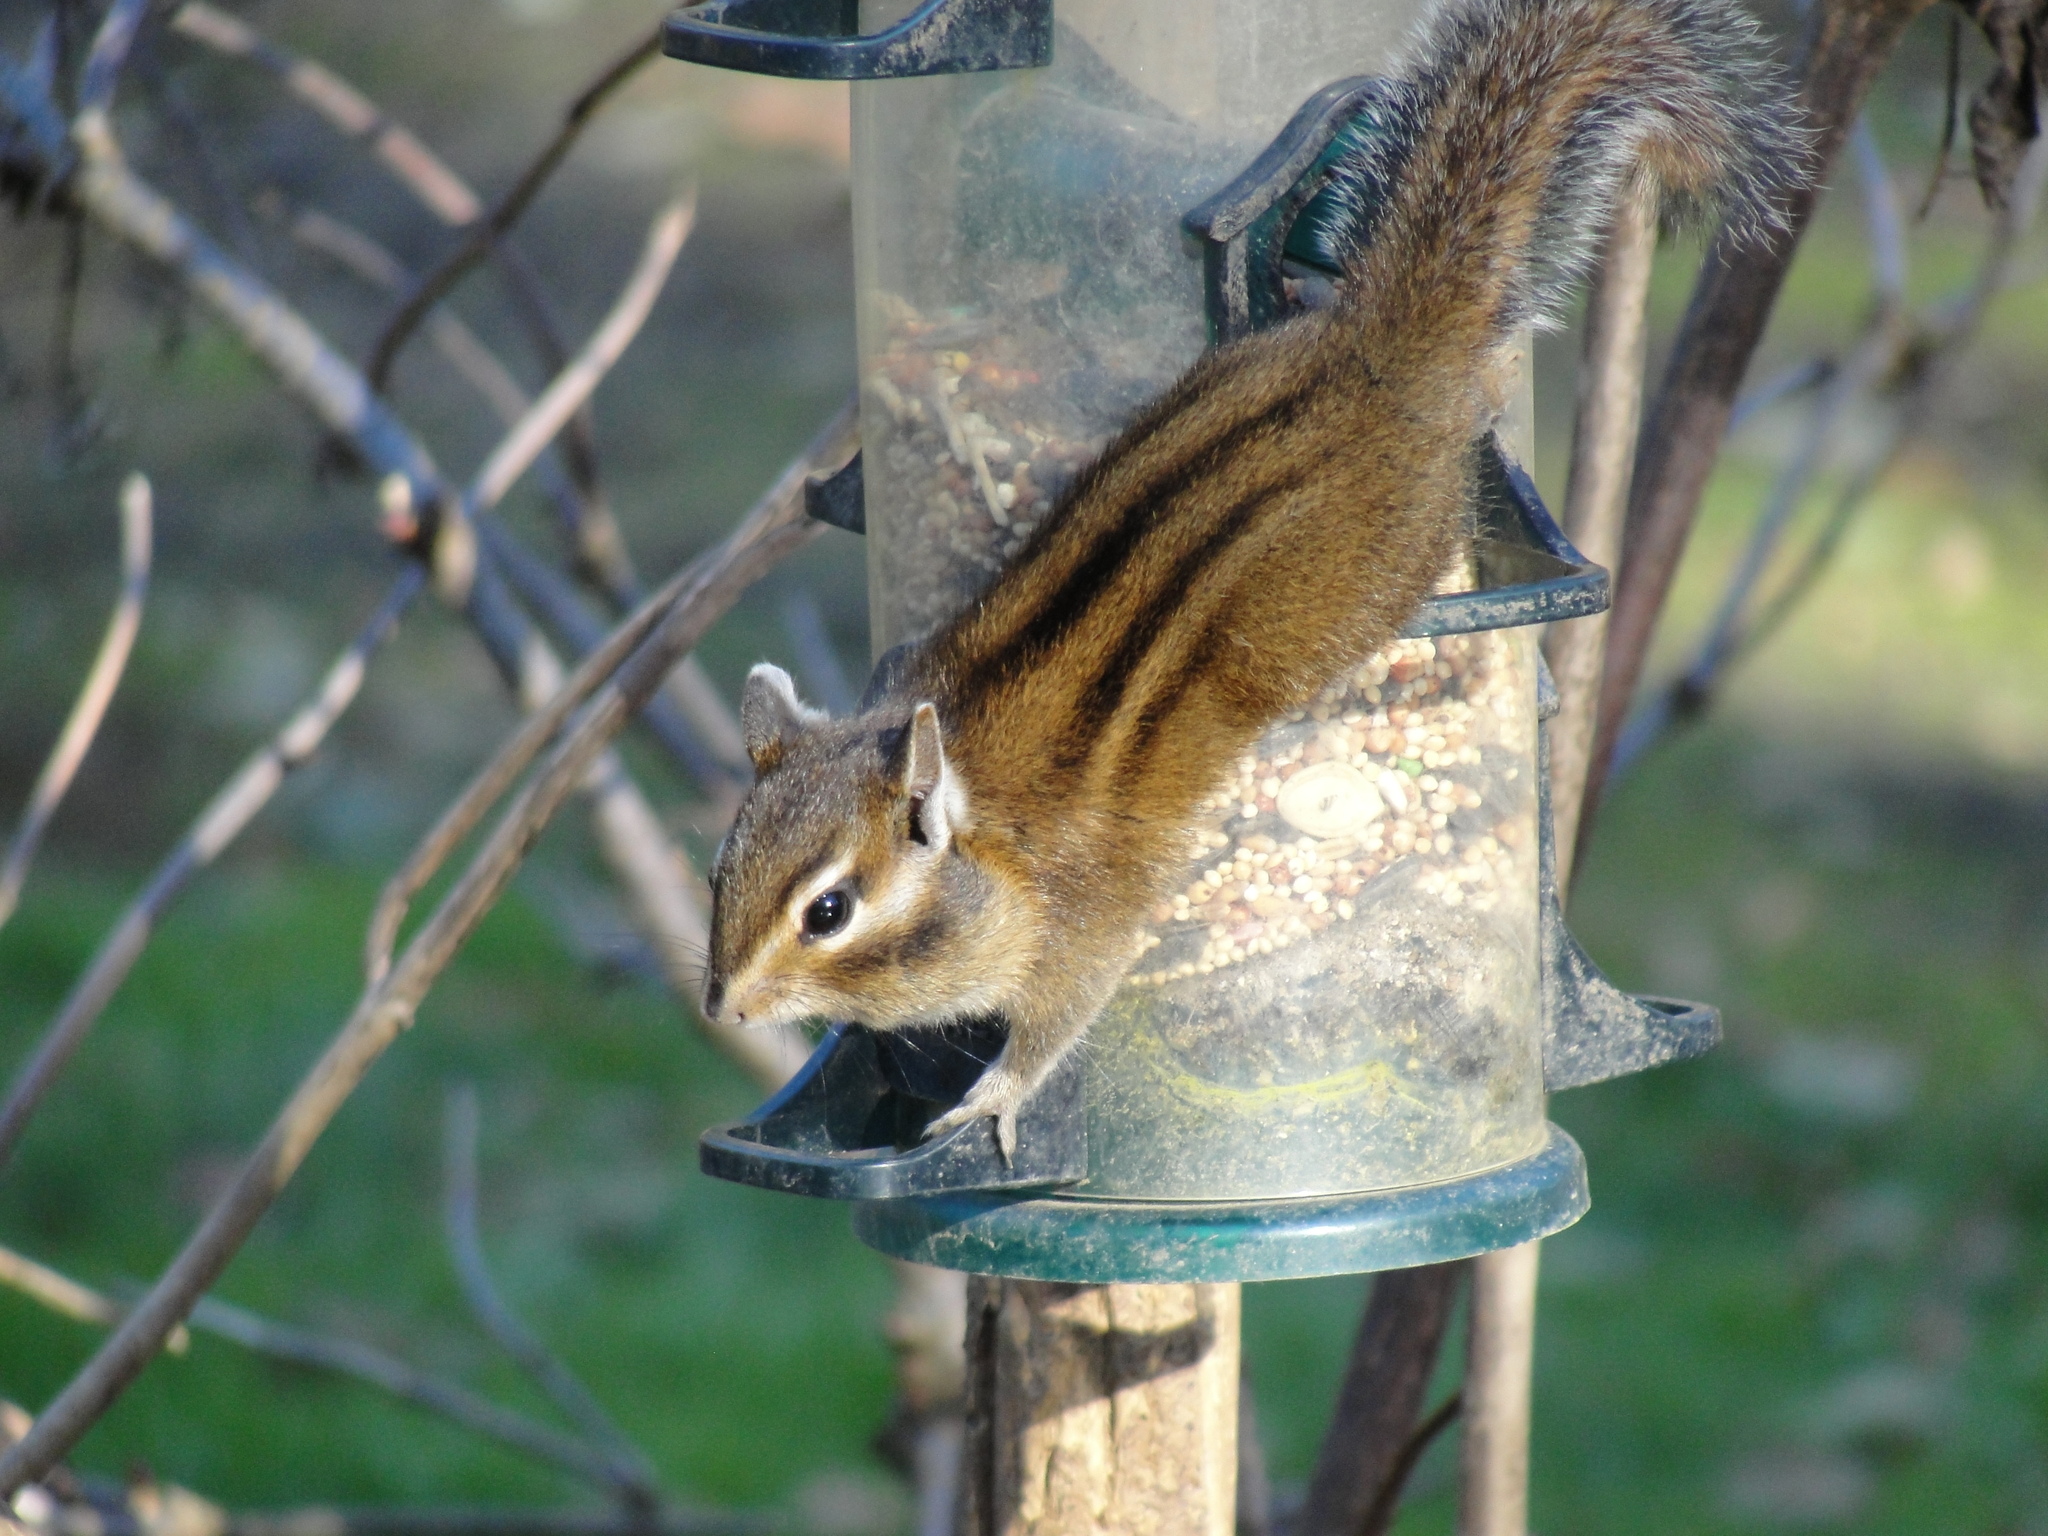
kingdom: Animalia
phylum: Chordata
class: Mammalia
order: Rodentia
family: Sciuridae
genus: Tamias
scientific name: Tamias townsendii
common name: Townsend's chipmunk
